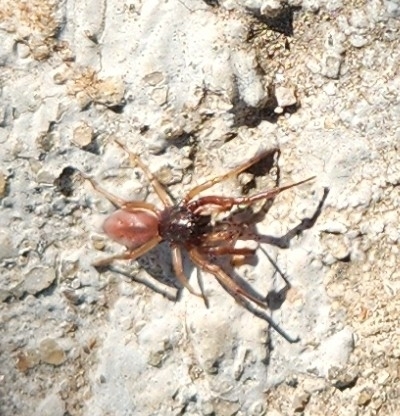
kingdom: Animalia
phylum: Arthropoda
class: Arachnida
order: Araneae
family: Trachelidae
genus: Trachelas
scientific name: Trachelas pacificus
